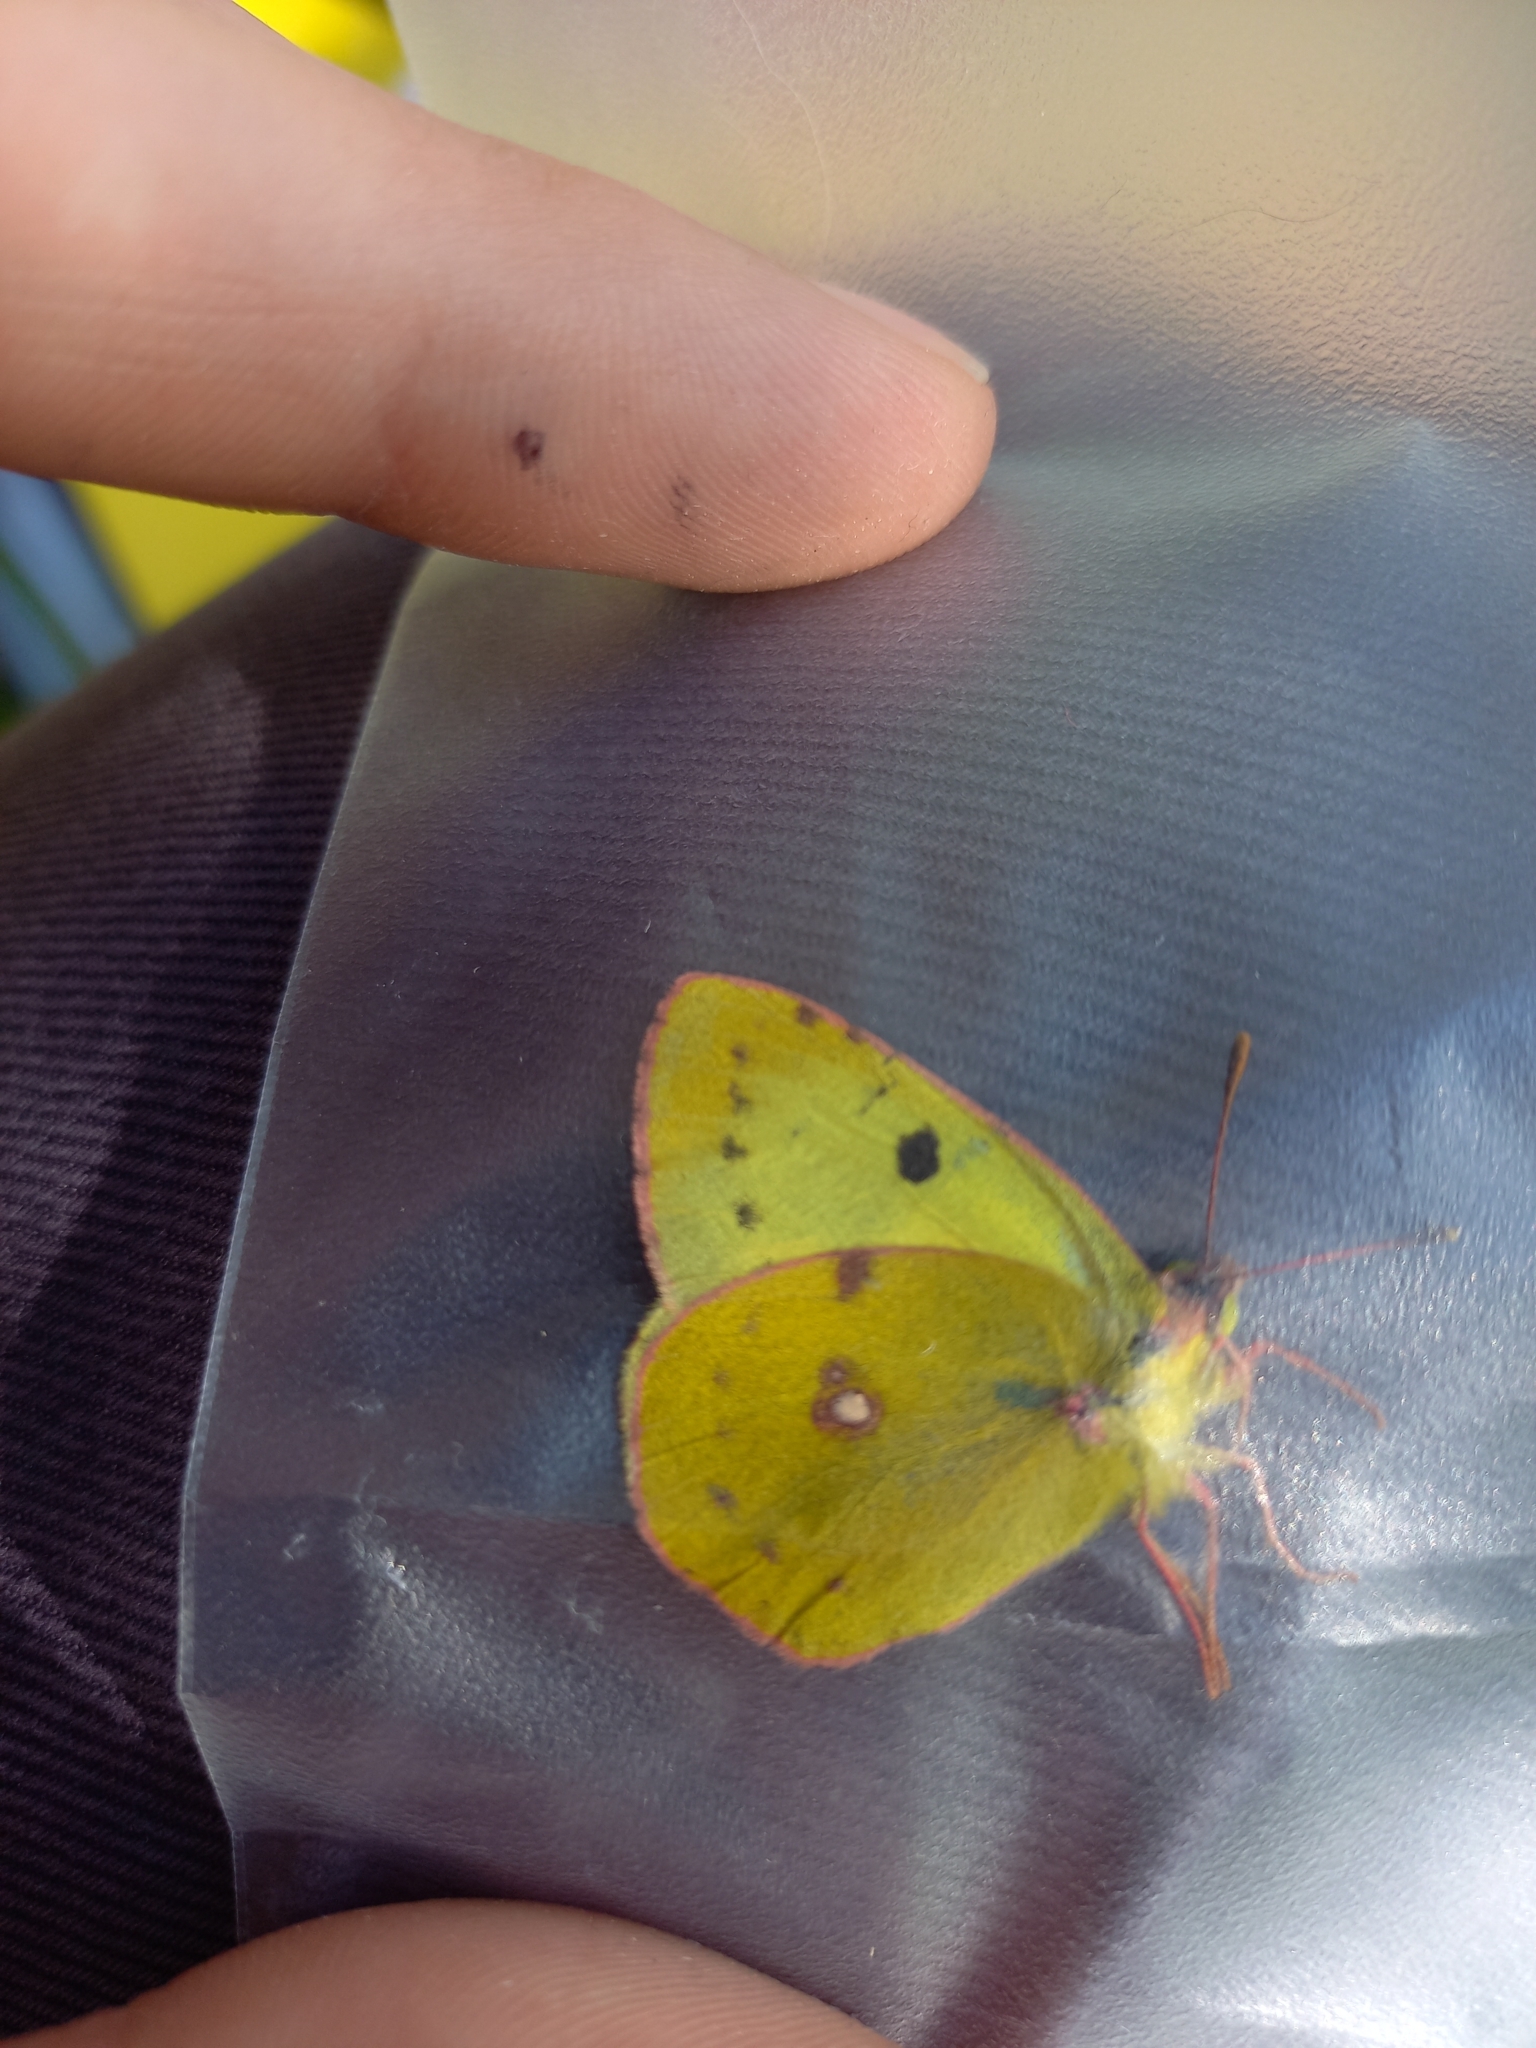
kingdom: Animalia
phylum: Arthropoda
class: Insecta
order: Lepidoptera
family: Pieridae
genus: Colias
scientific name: Colias alfacariensis
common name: Berger's clouded yellow
